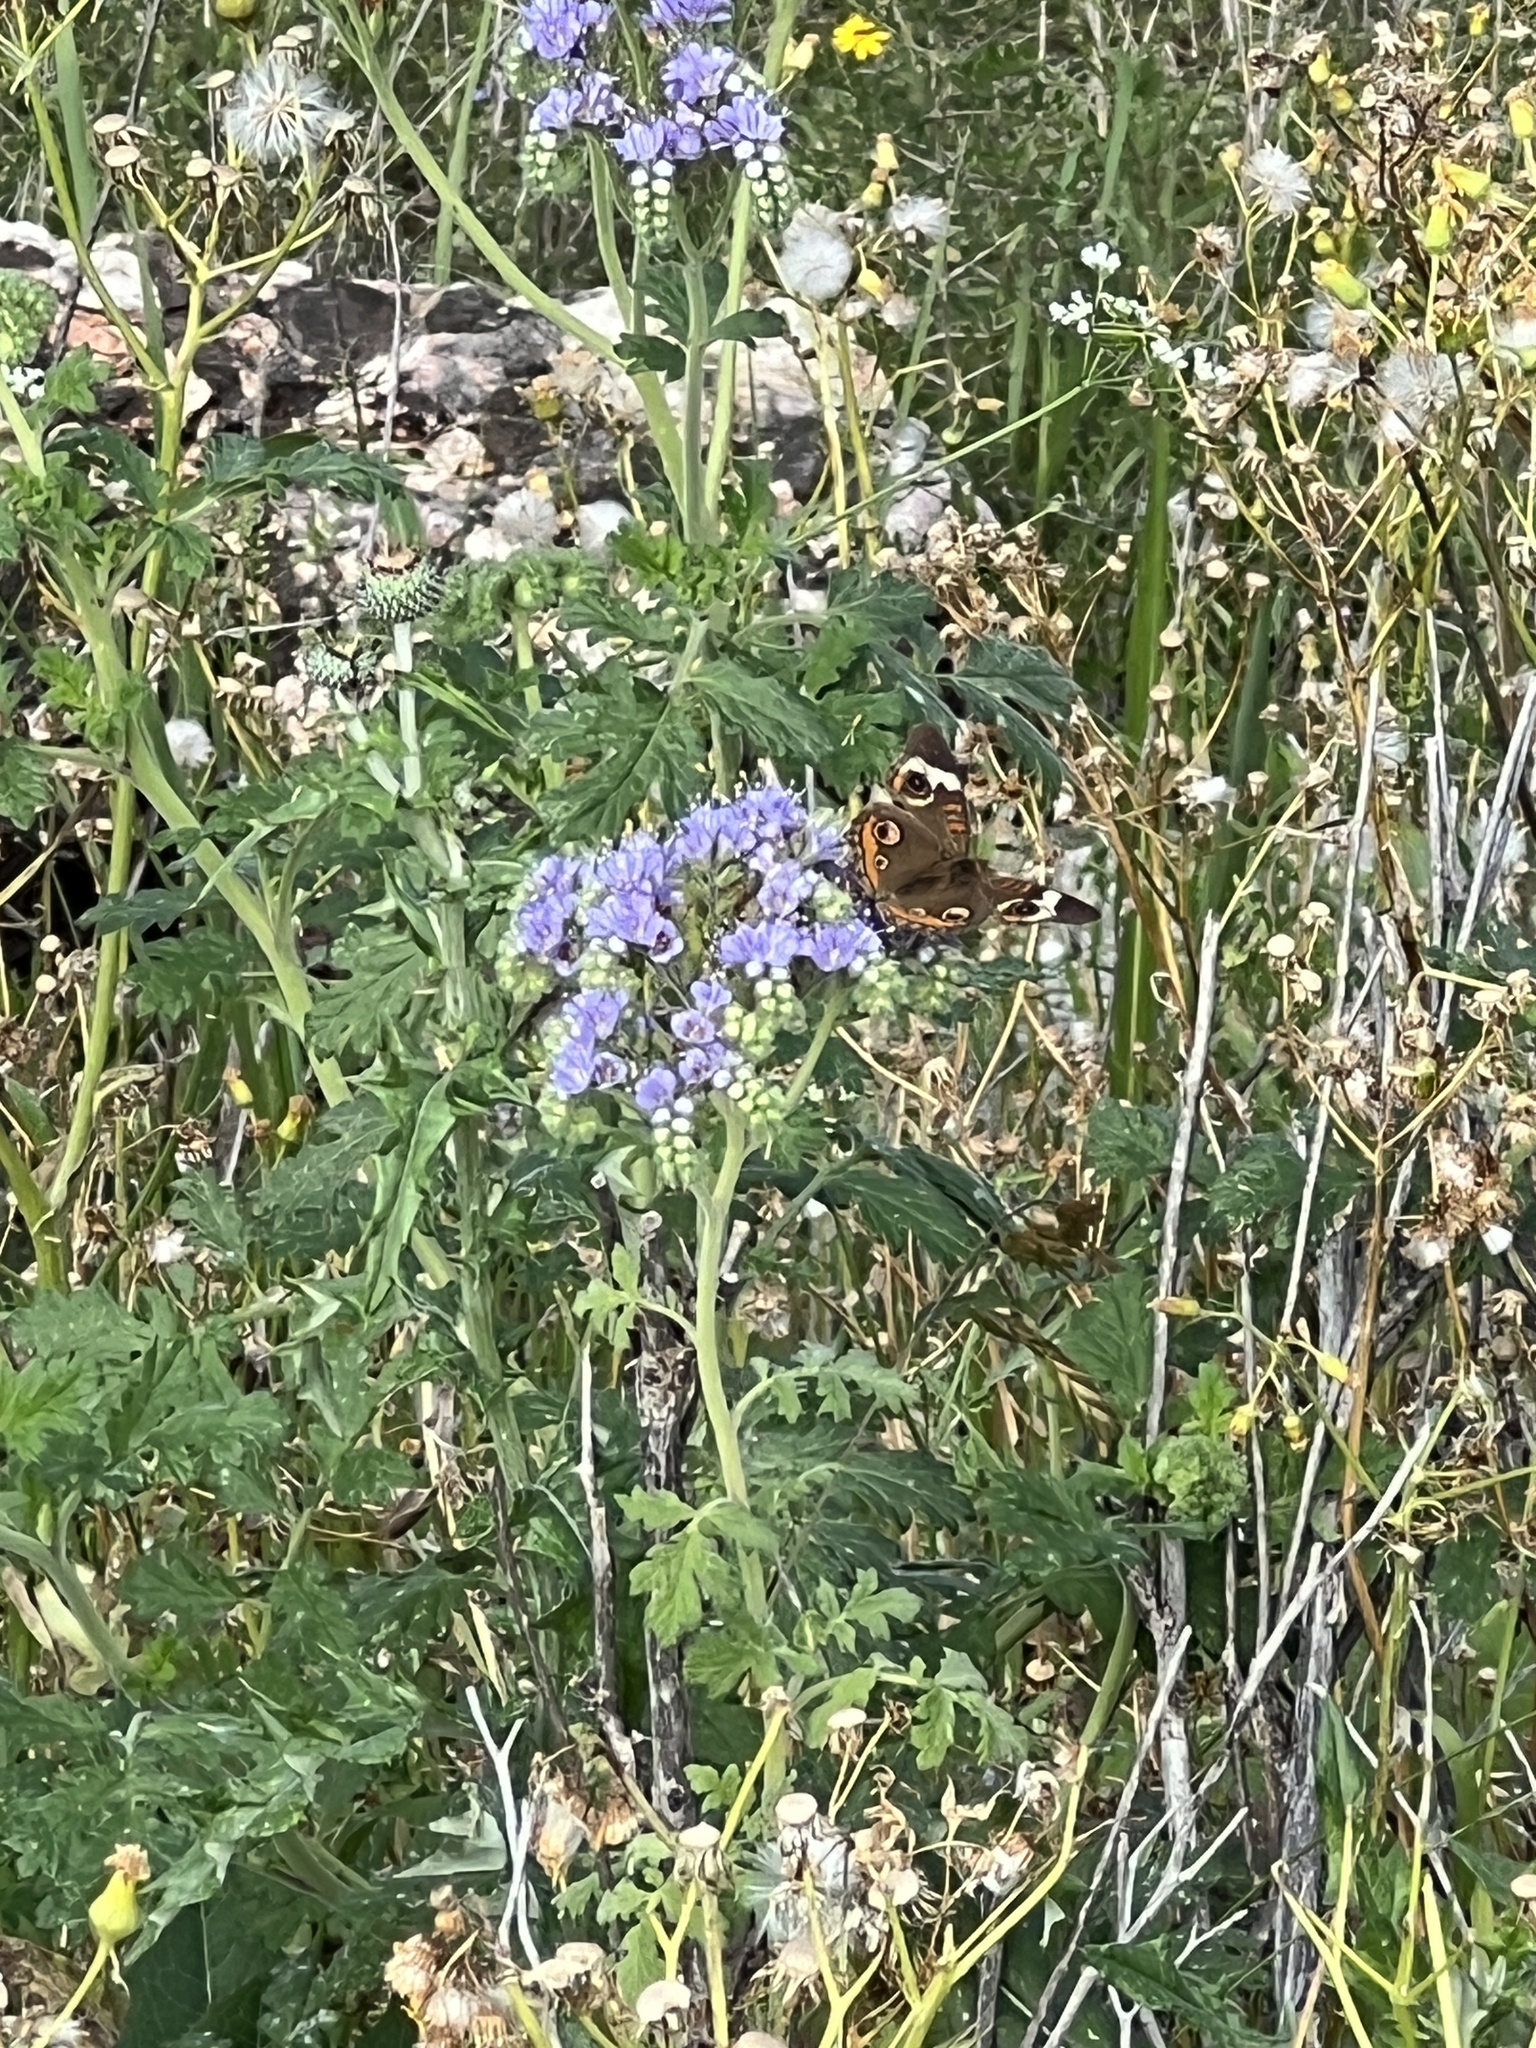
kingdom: Animalia
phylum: Arthropoda
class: Insecta
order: Lepidoptera
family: Nymphalidae
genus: Junonia
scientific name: Junonia coenia
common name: Common buckeye
